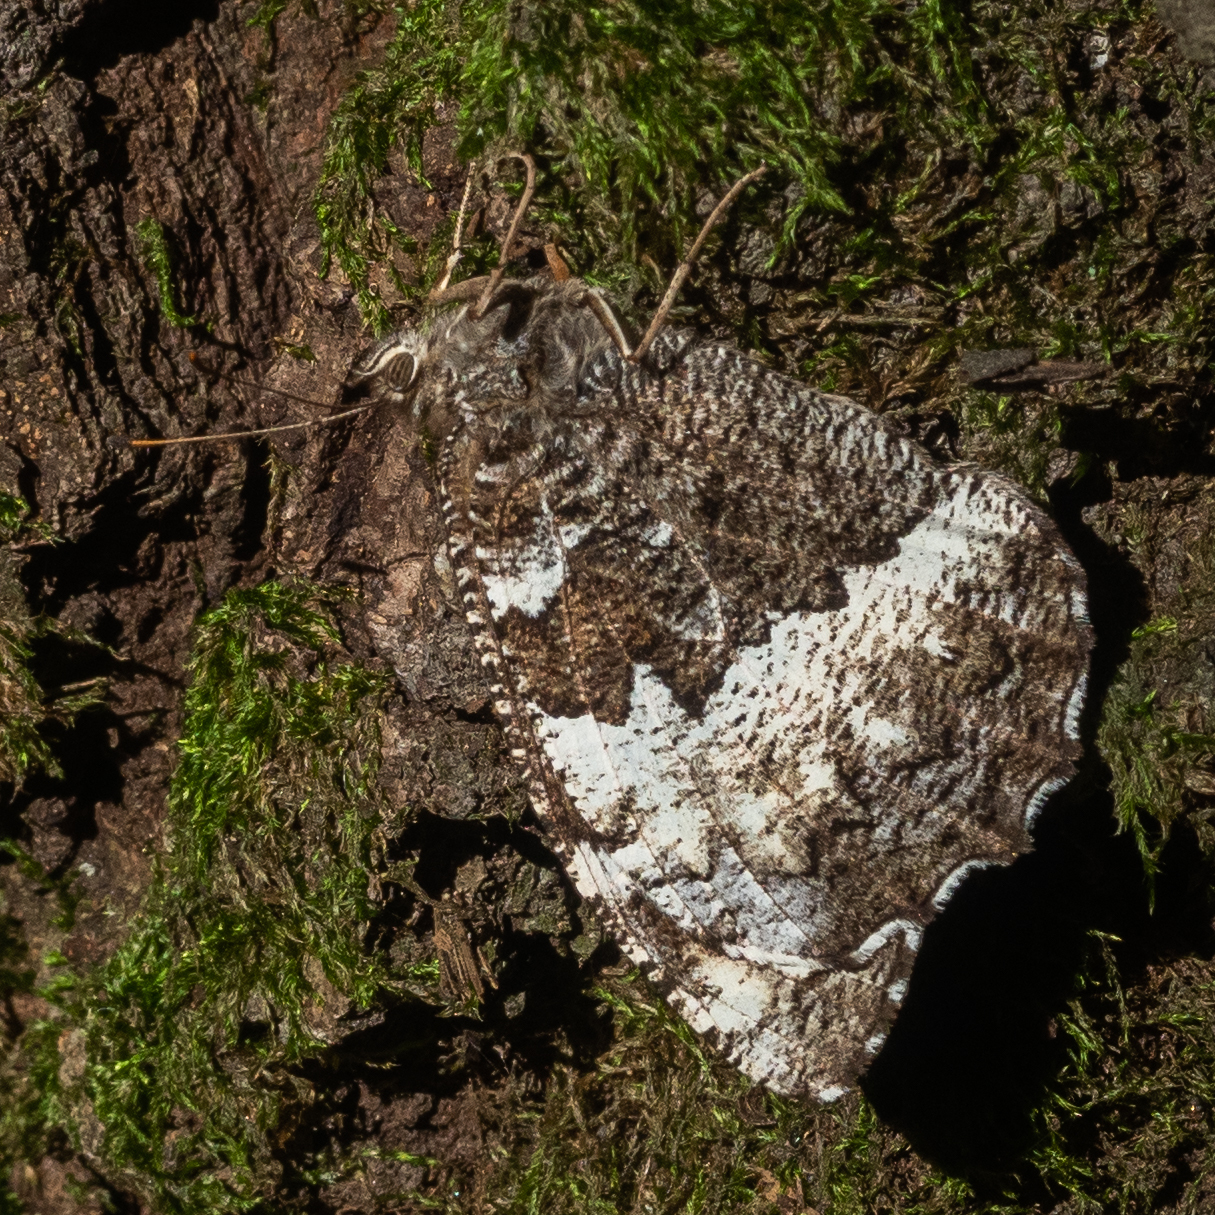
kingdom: Animalia
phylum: Arthropoda
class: Insecta
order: Lepidoptera
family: Lycaenidae
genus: Loweia
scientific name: Loweia tityrus
